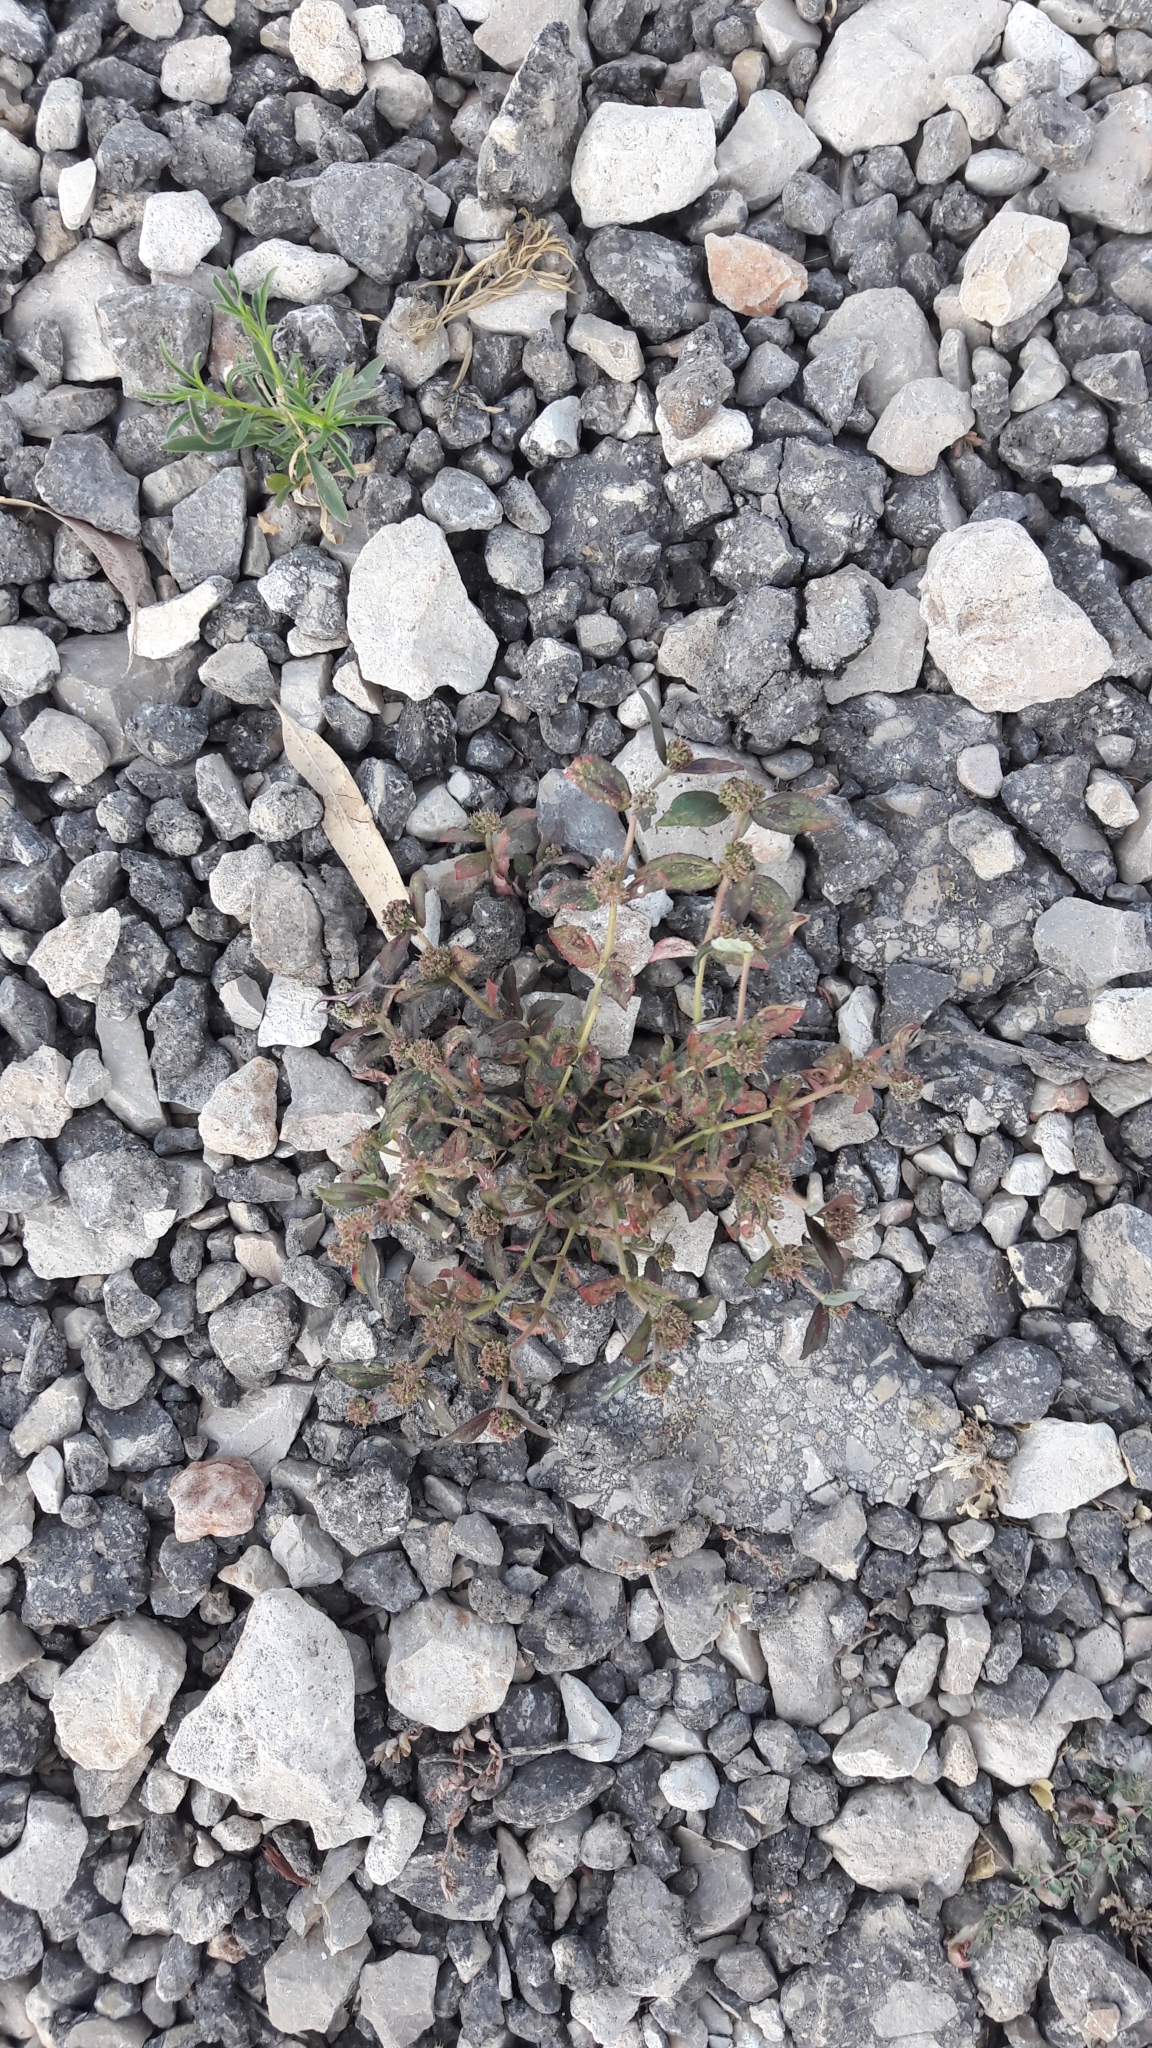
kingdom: Plantae
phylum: Tracheophyta
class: Magnoliopsida
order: Malpighiales
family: Euphorbiaceae
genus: Euphorbia
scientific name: Euphorbia hirta
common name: Pillpod sandmat
